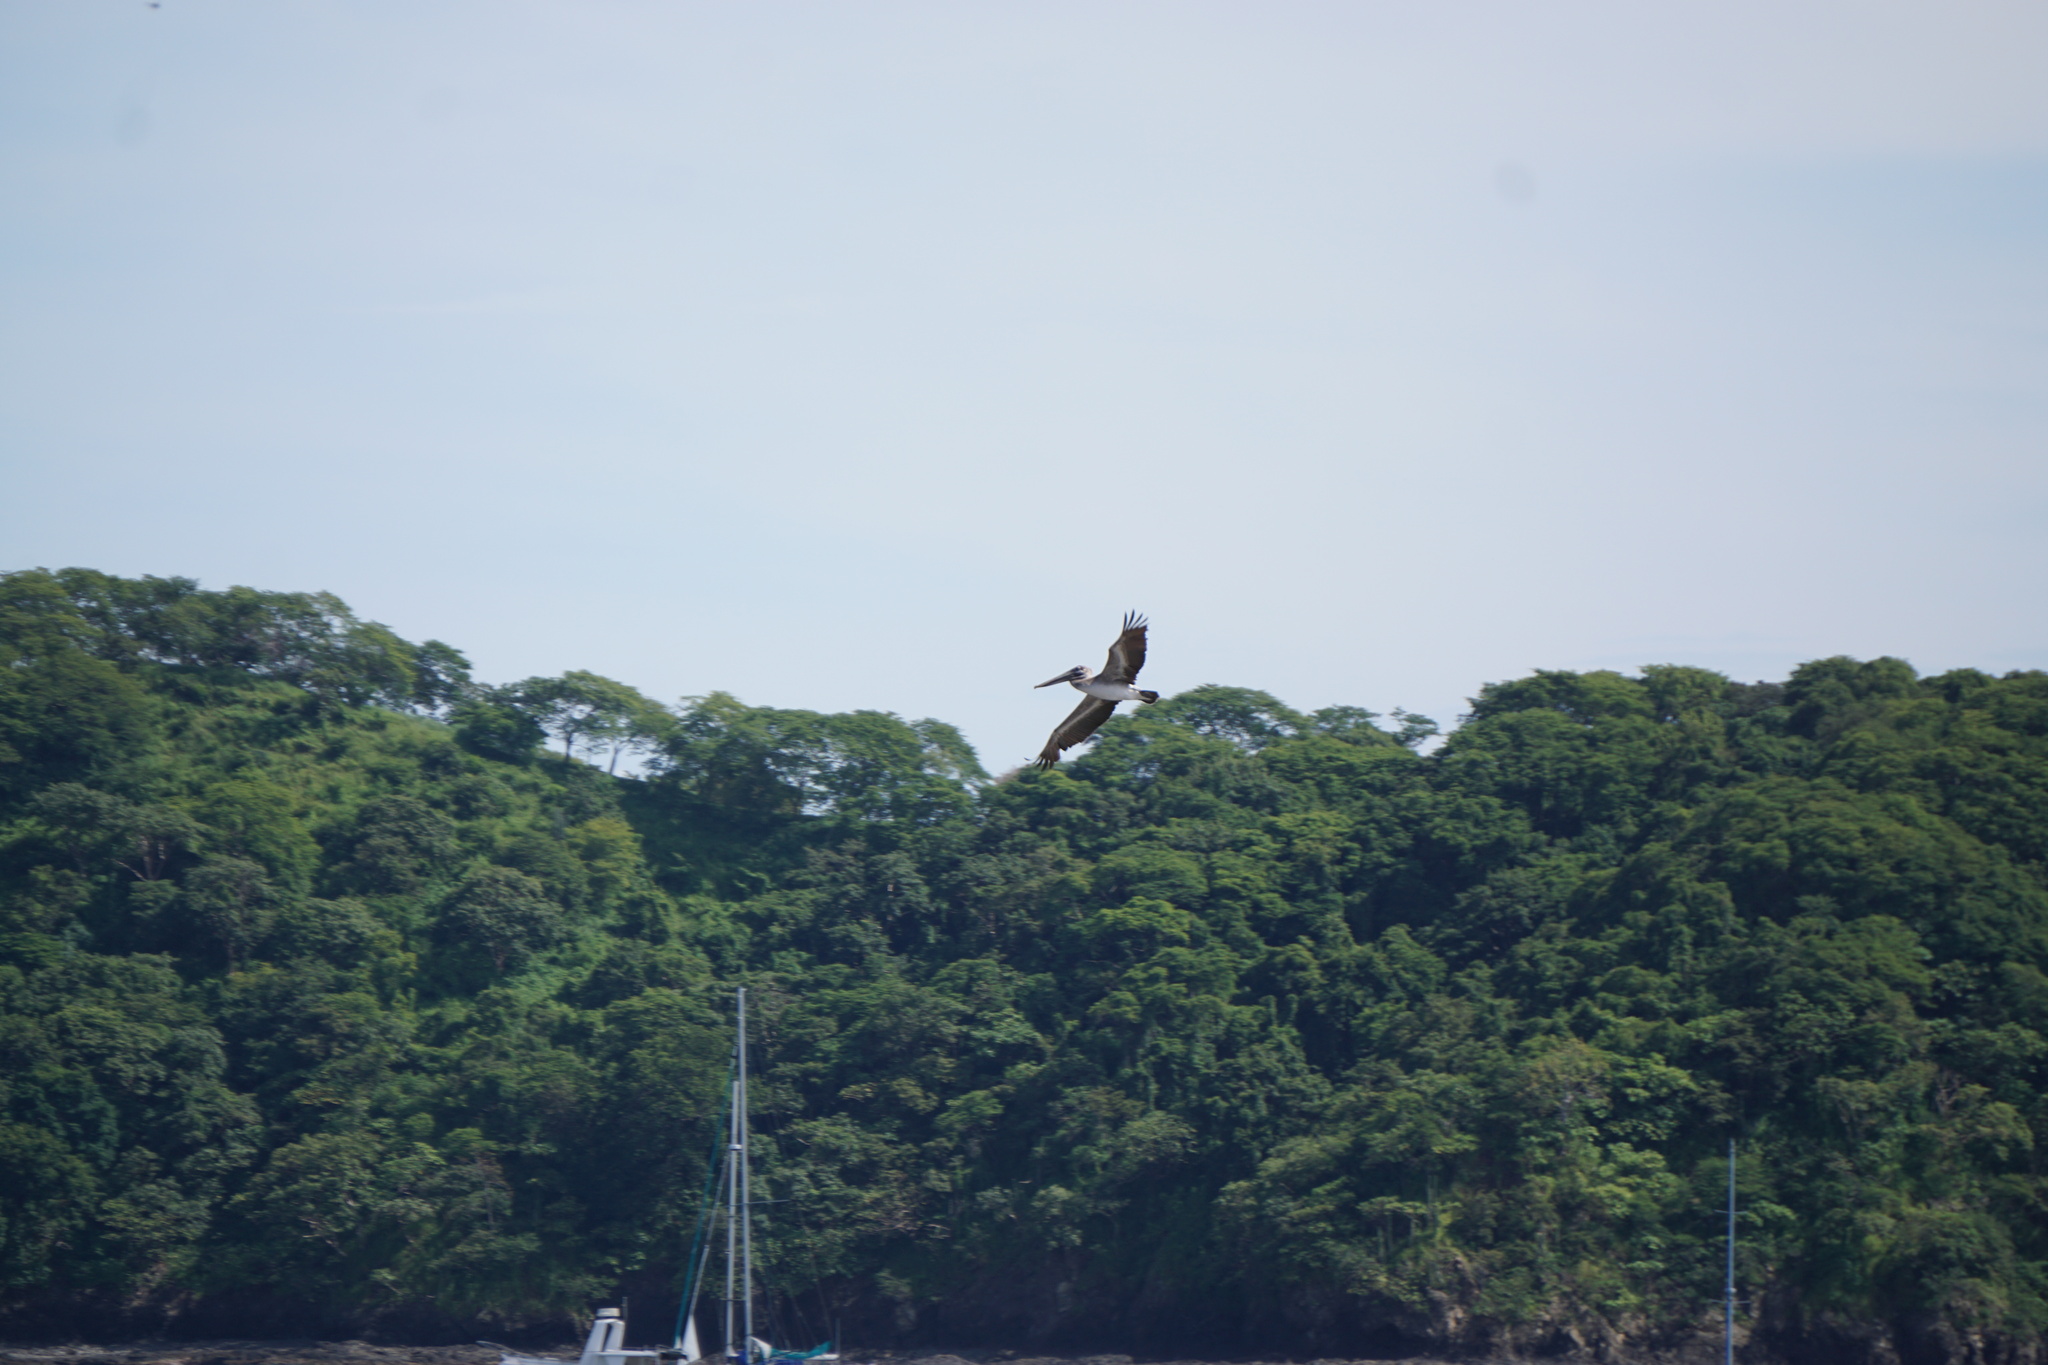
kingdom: Animalia
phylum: Chordata
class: Aves
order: Pelecaniformes
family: Pelecanidae
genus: Pelecanus
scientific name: Pelecanus occidentalis
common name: Brown pelican
